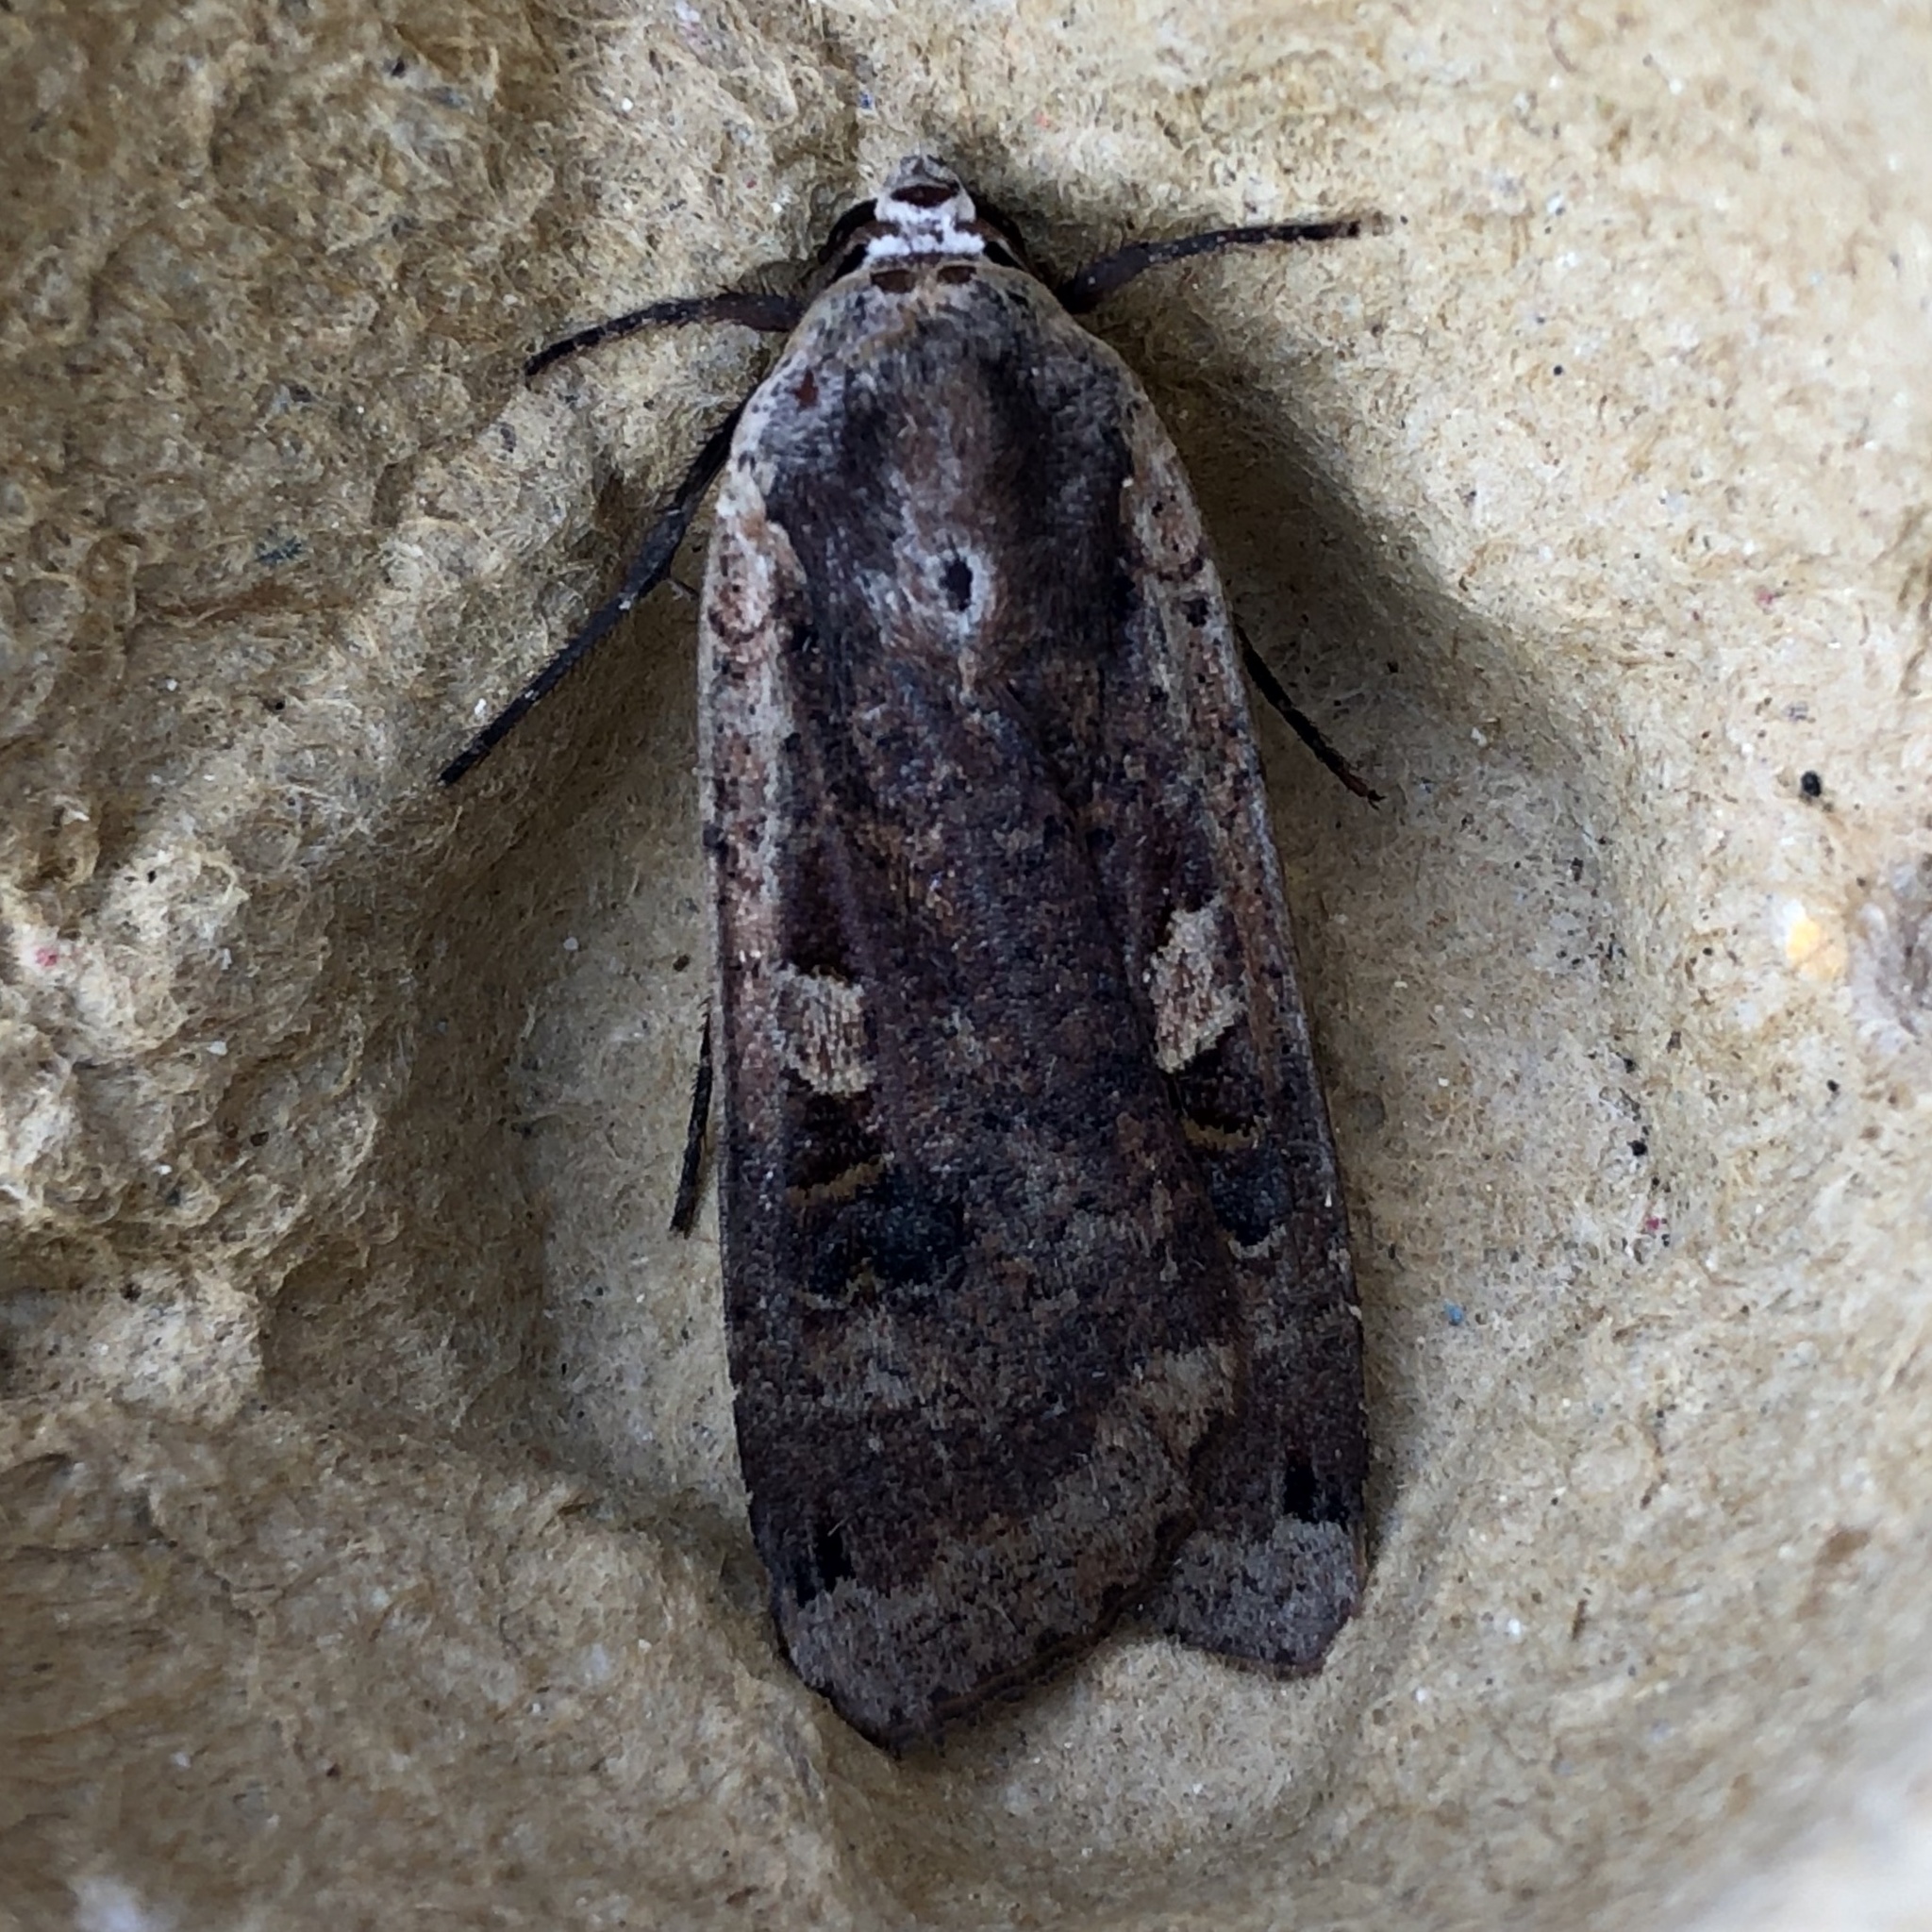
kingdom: Animalia
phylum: Arthropoda
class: Insecta
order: Lepidoptera
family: Noctuidae
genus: Noctua
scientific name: Noctua pronuba
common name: Large yellow underwing
